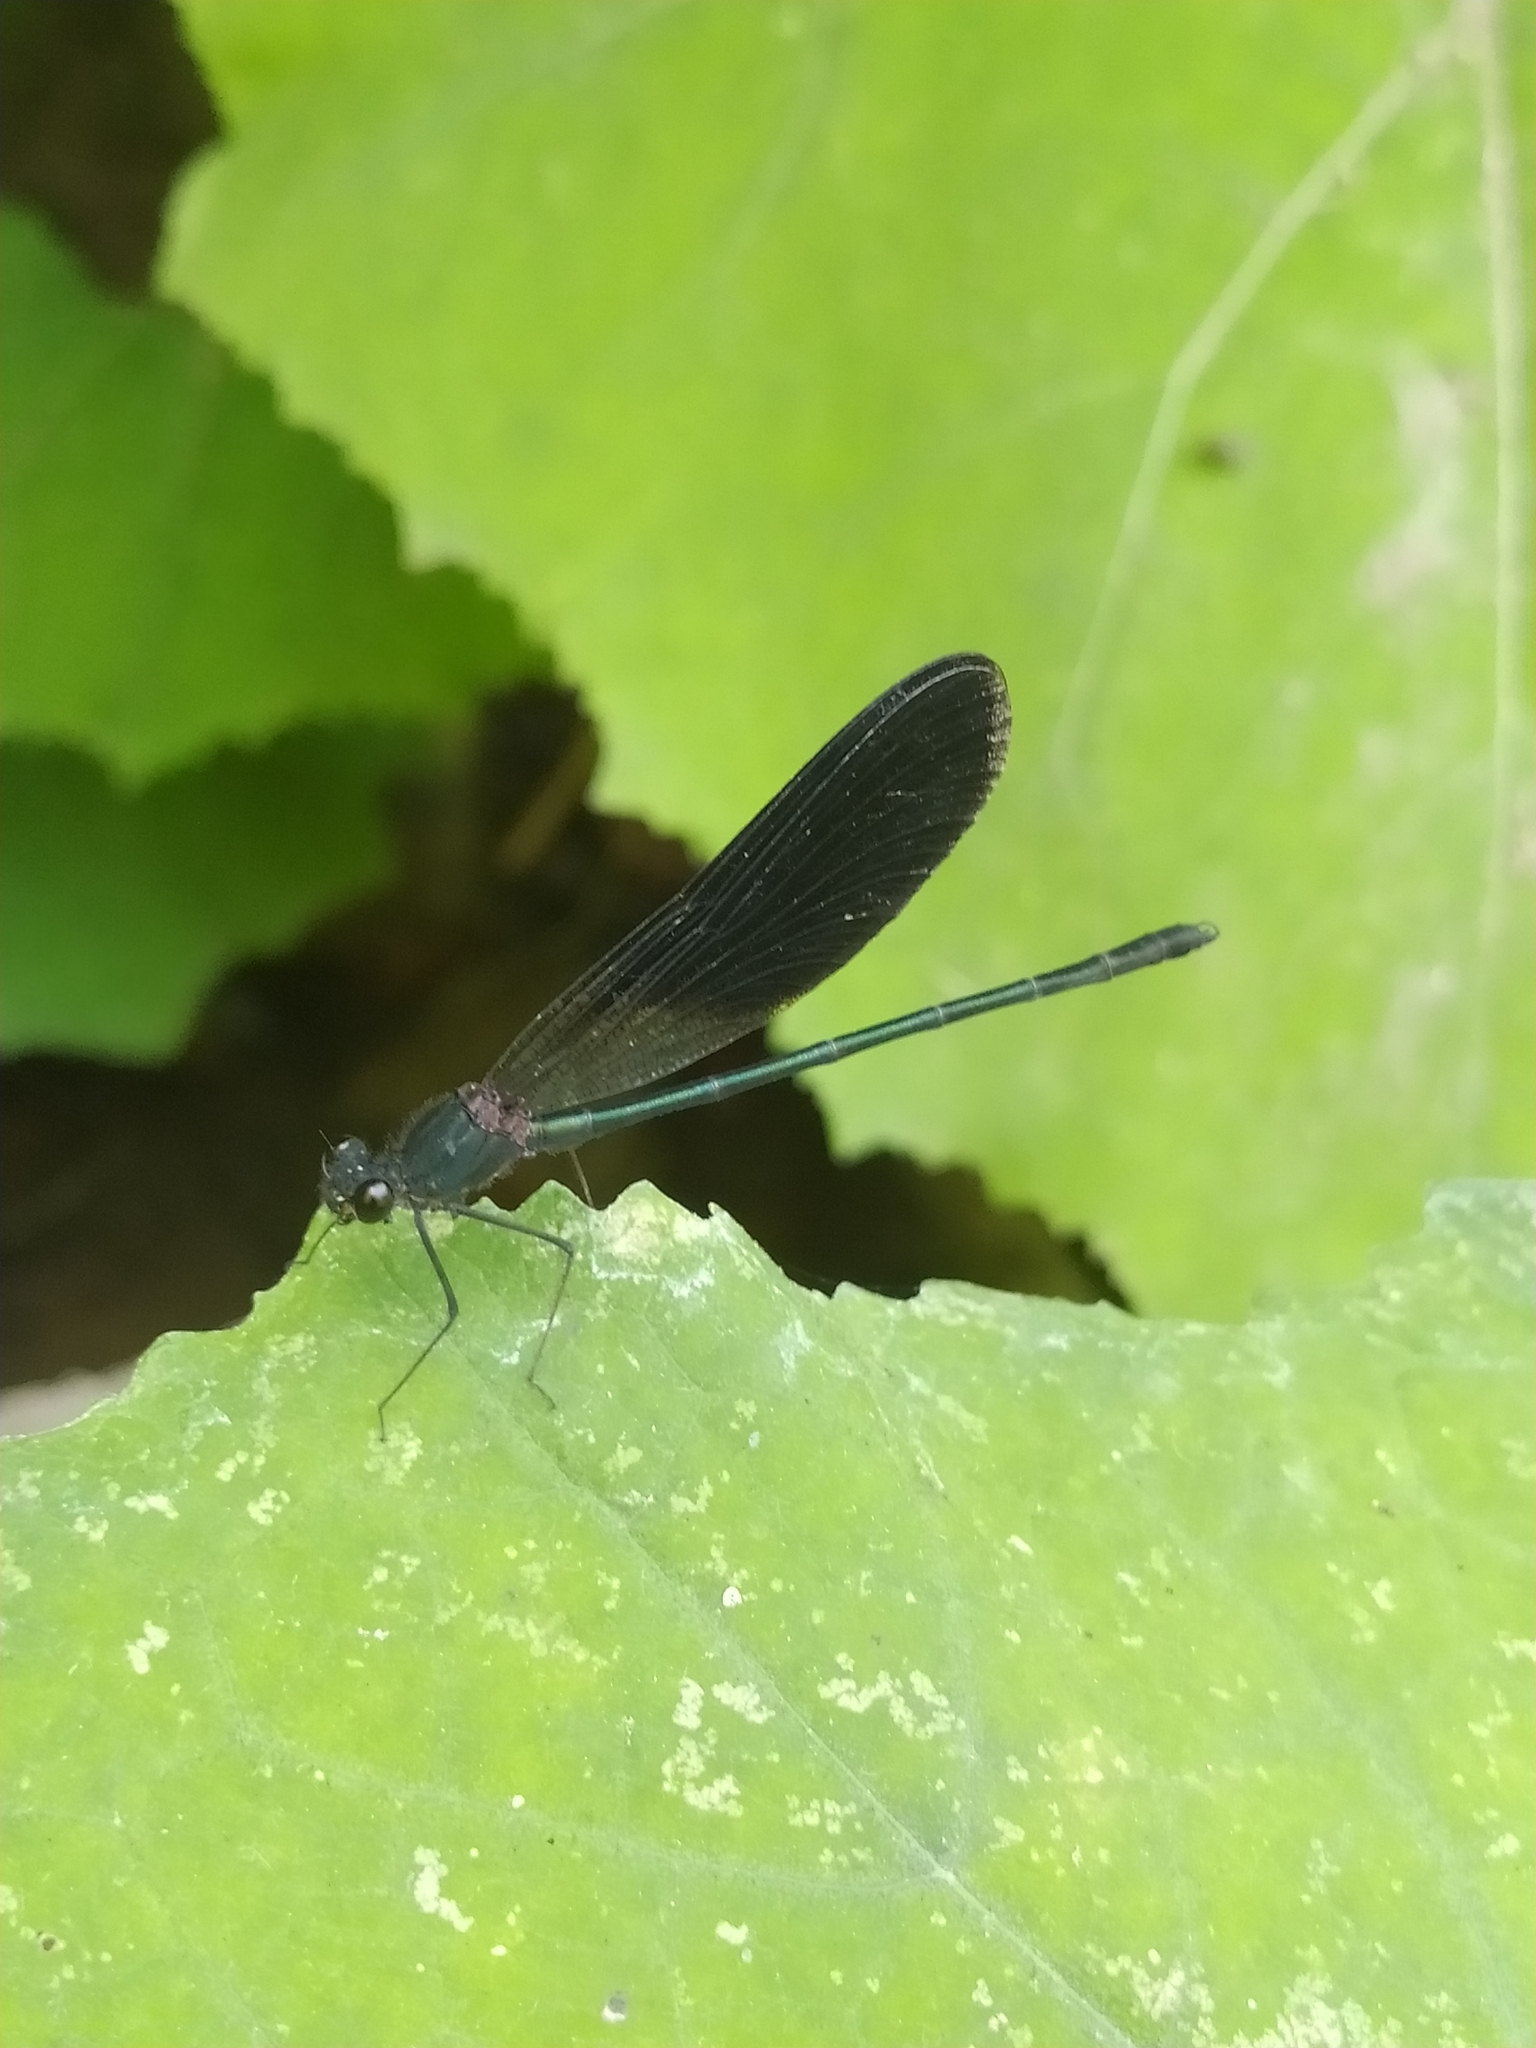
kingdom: Animalia
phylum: Arthropoda
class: Insecta
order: Odonata
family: Calopterygidae
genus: Calopteryx
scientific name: Calopteryx haemorrhoidalis
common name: Copper demoiselle
